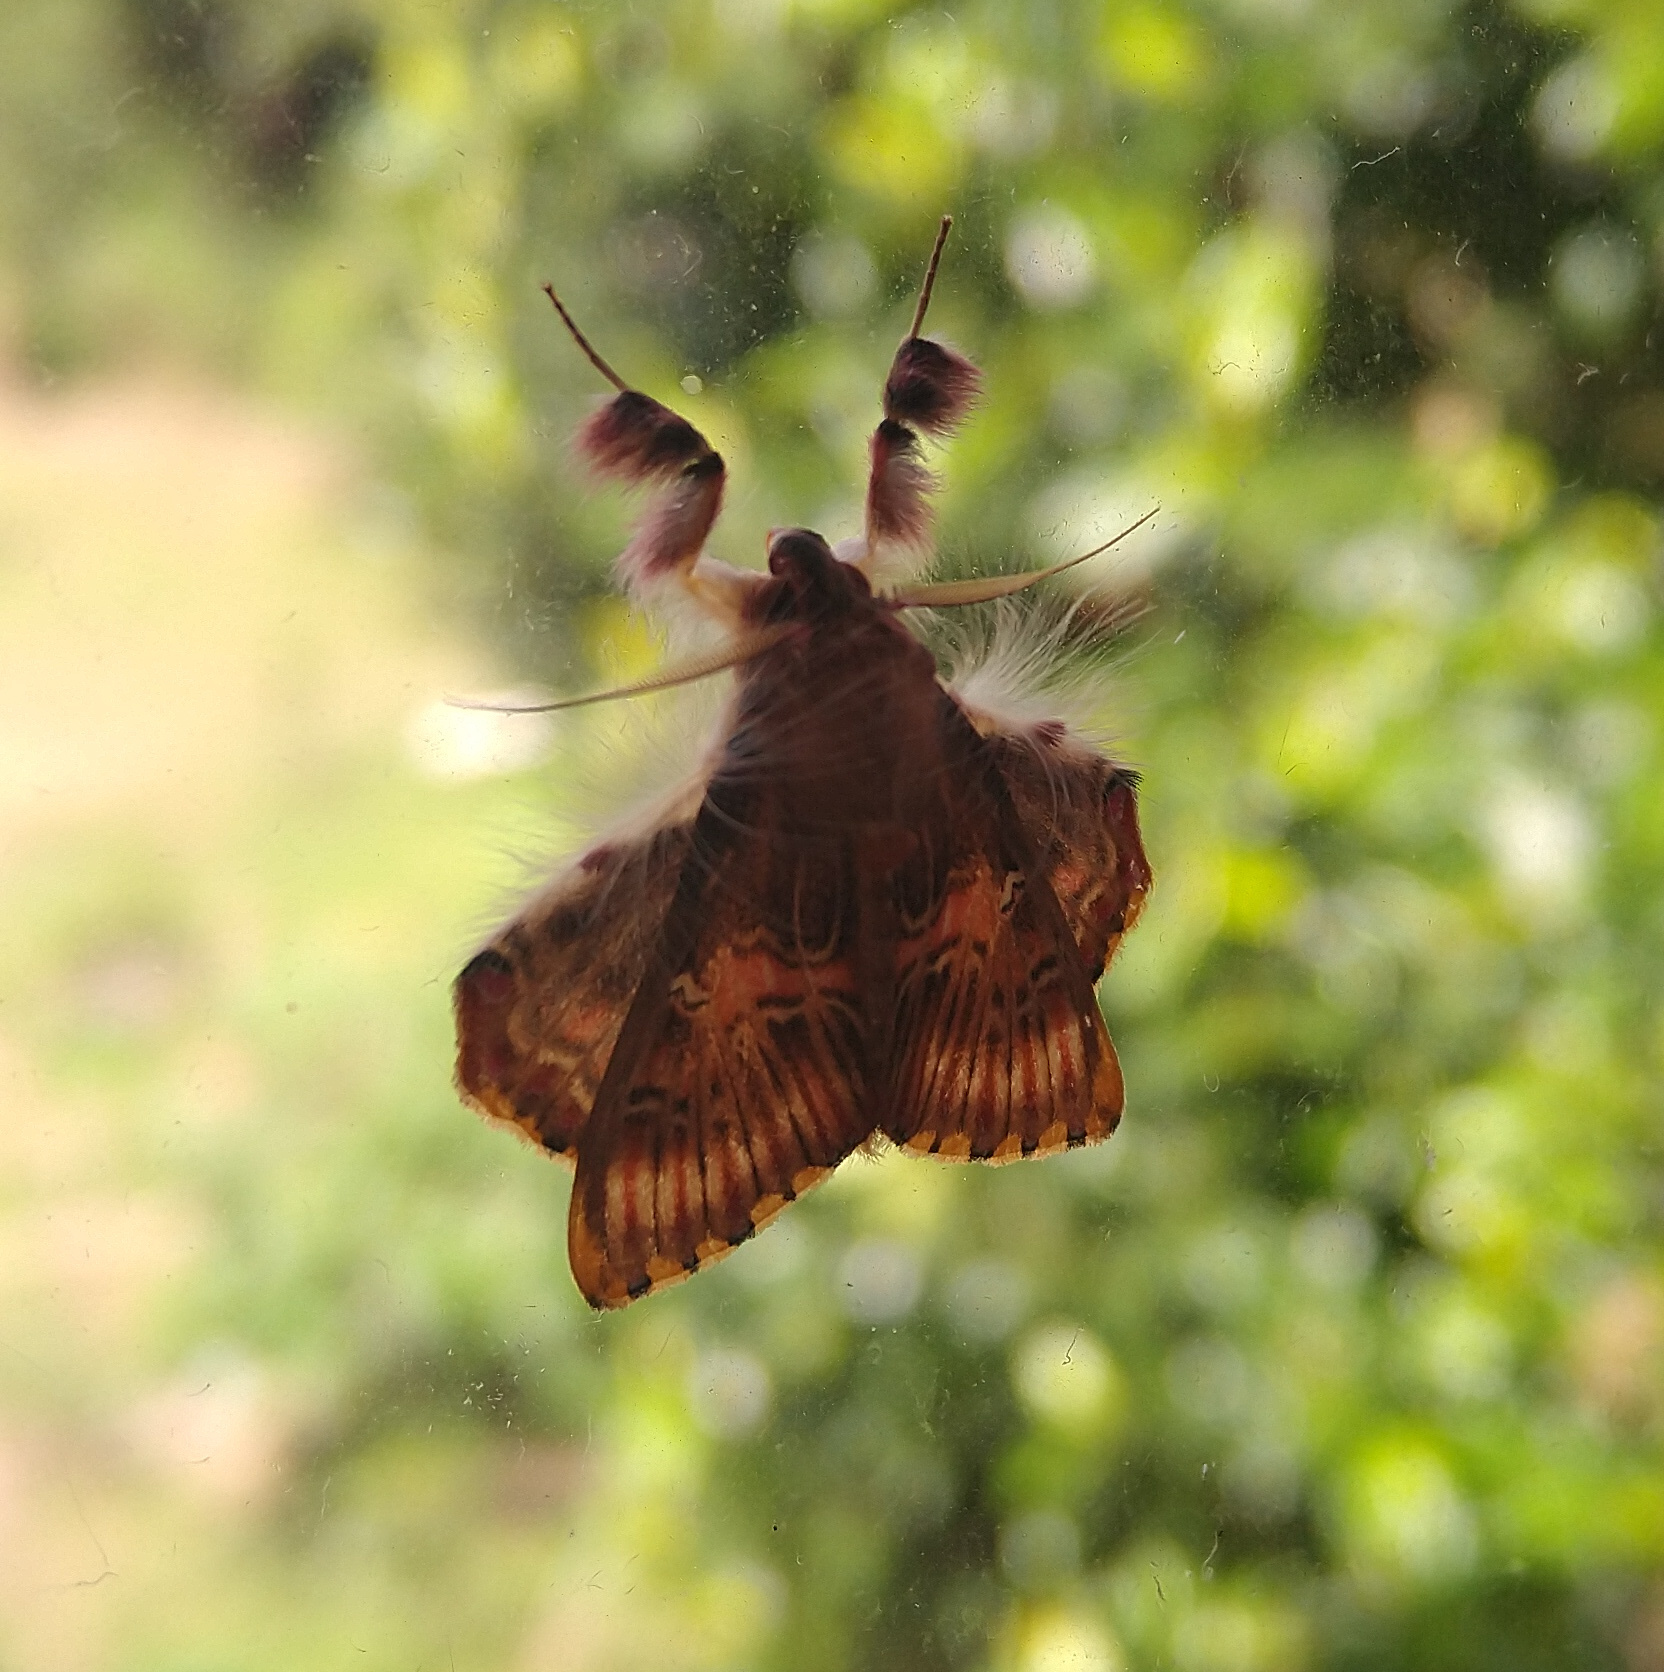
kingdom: Animalia
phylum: Arthropoda
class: Insecta
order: Lepidoptera
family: Erebidae
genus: Sosxetra
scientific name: Sosxetra grata
